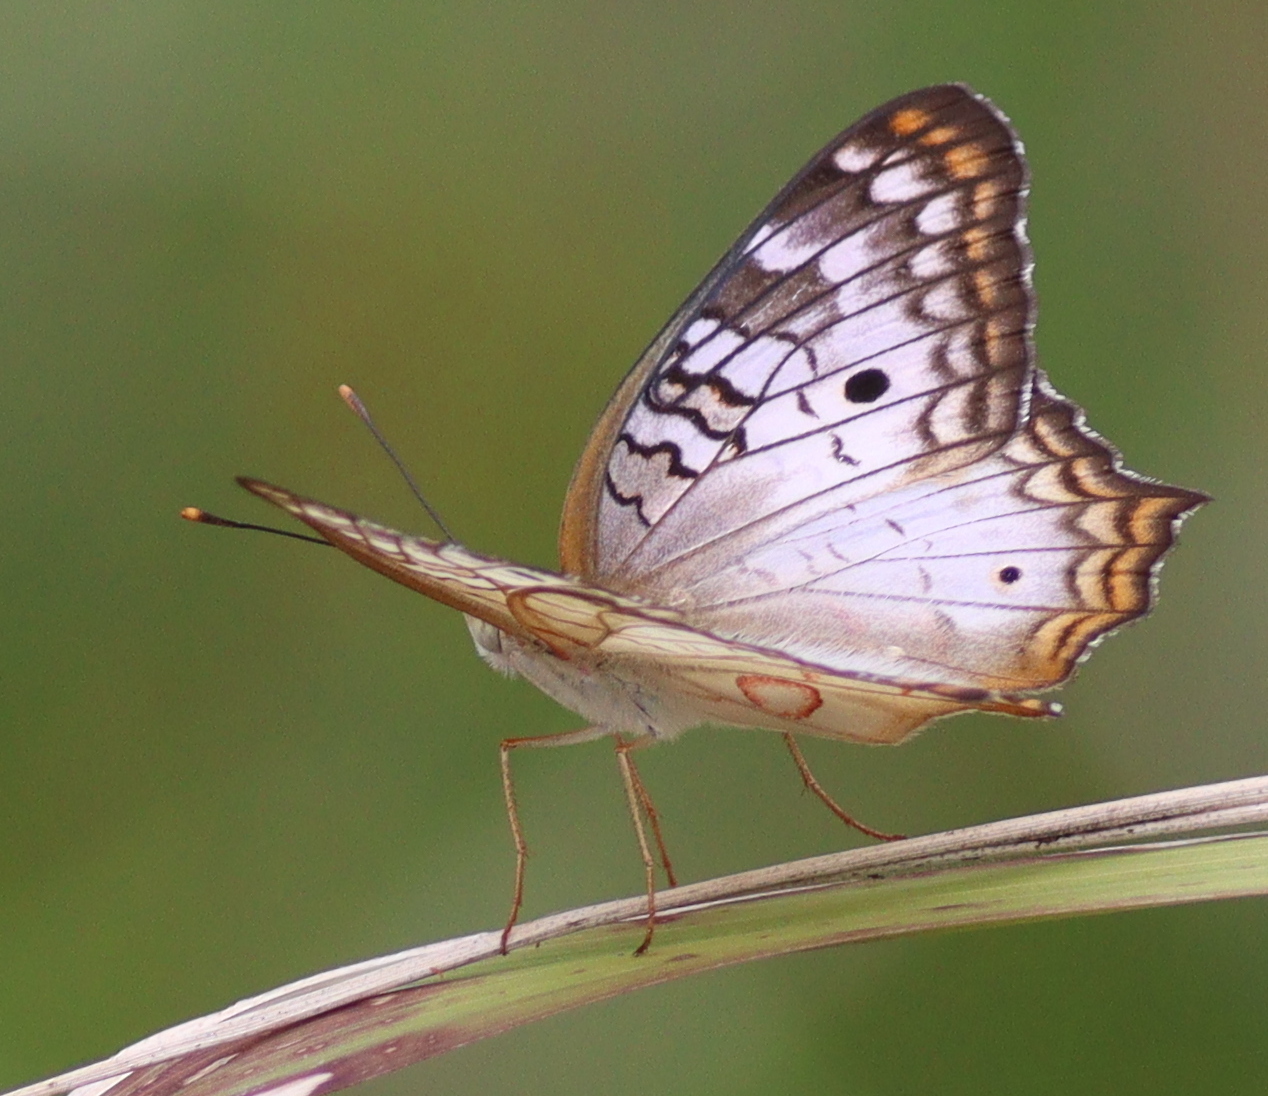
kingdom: Animalia
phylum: Arthropoda
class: Insecta
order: Lepidoptera
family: Nymphalidae
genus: Anartia
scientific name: Anartia jatrophae
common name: White peacock
